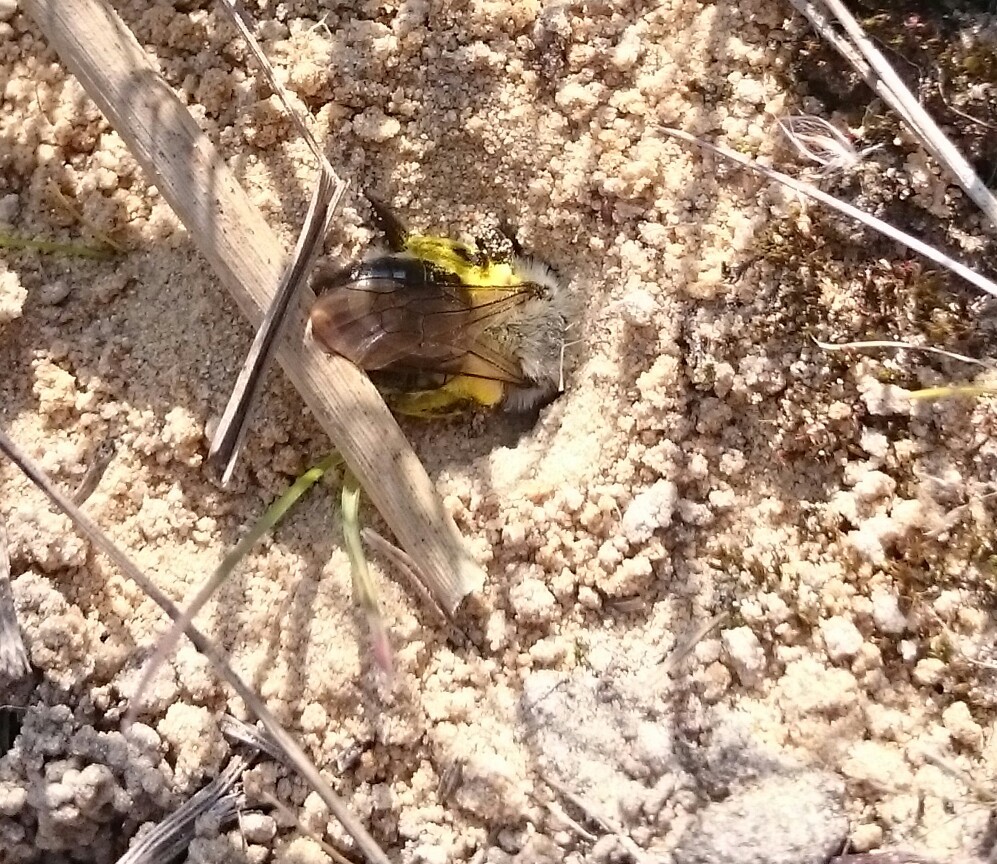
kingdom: Animalia
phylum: Arthropoda
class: Insecta
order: Hymenoptera
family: Andrenidae
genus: Andrena
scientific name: Andrena vaga
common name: Grey-backed mining bee
